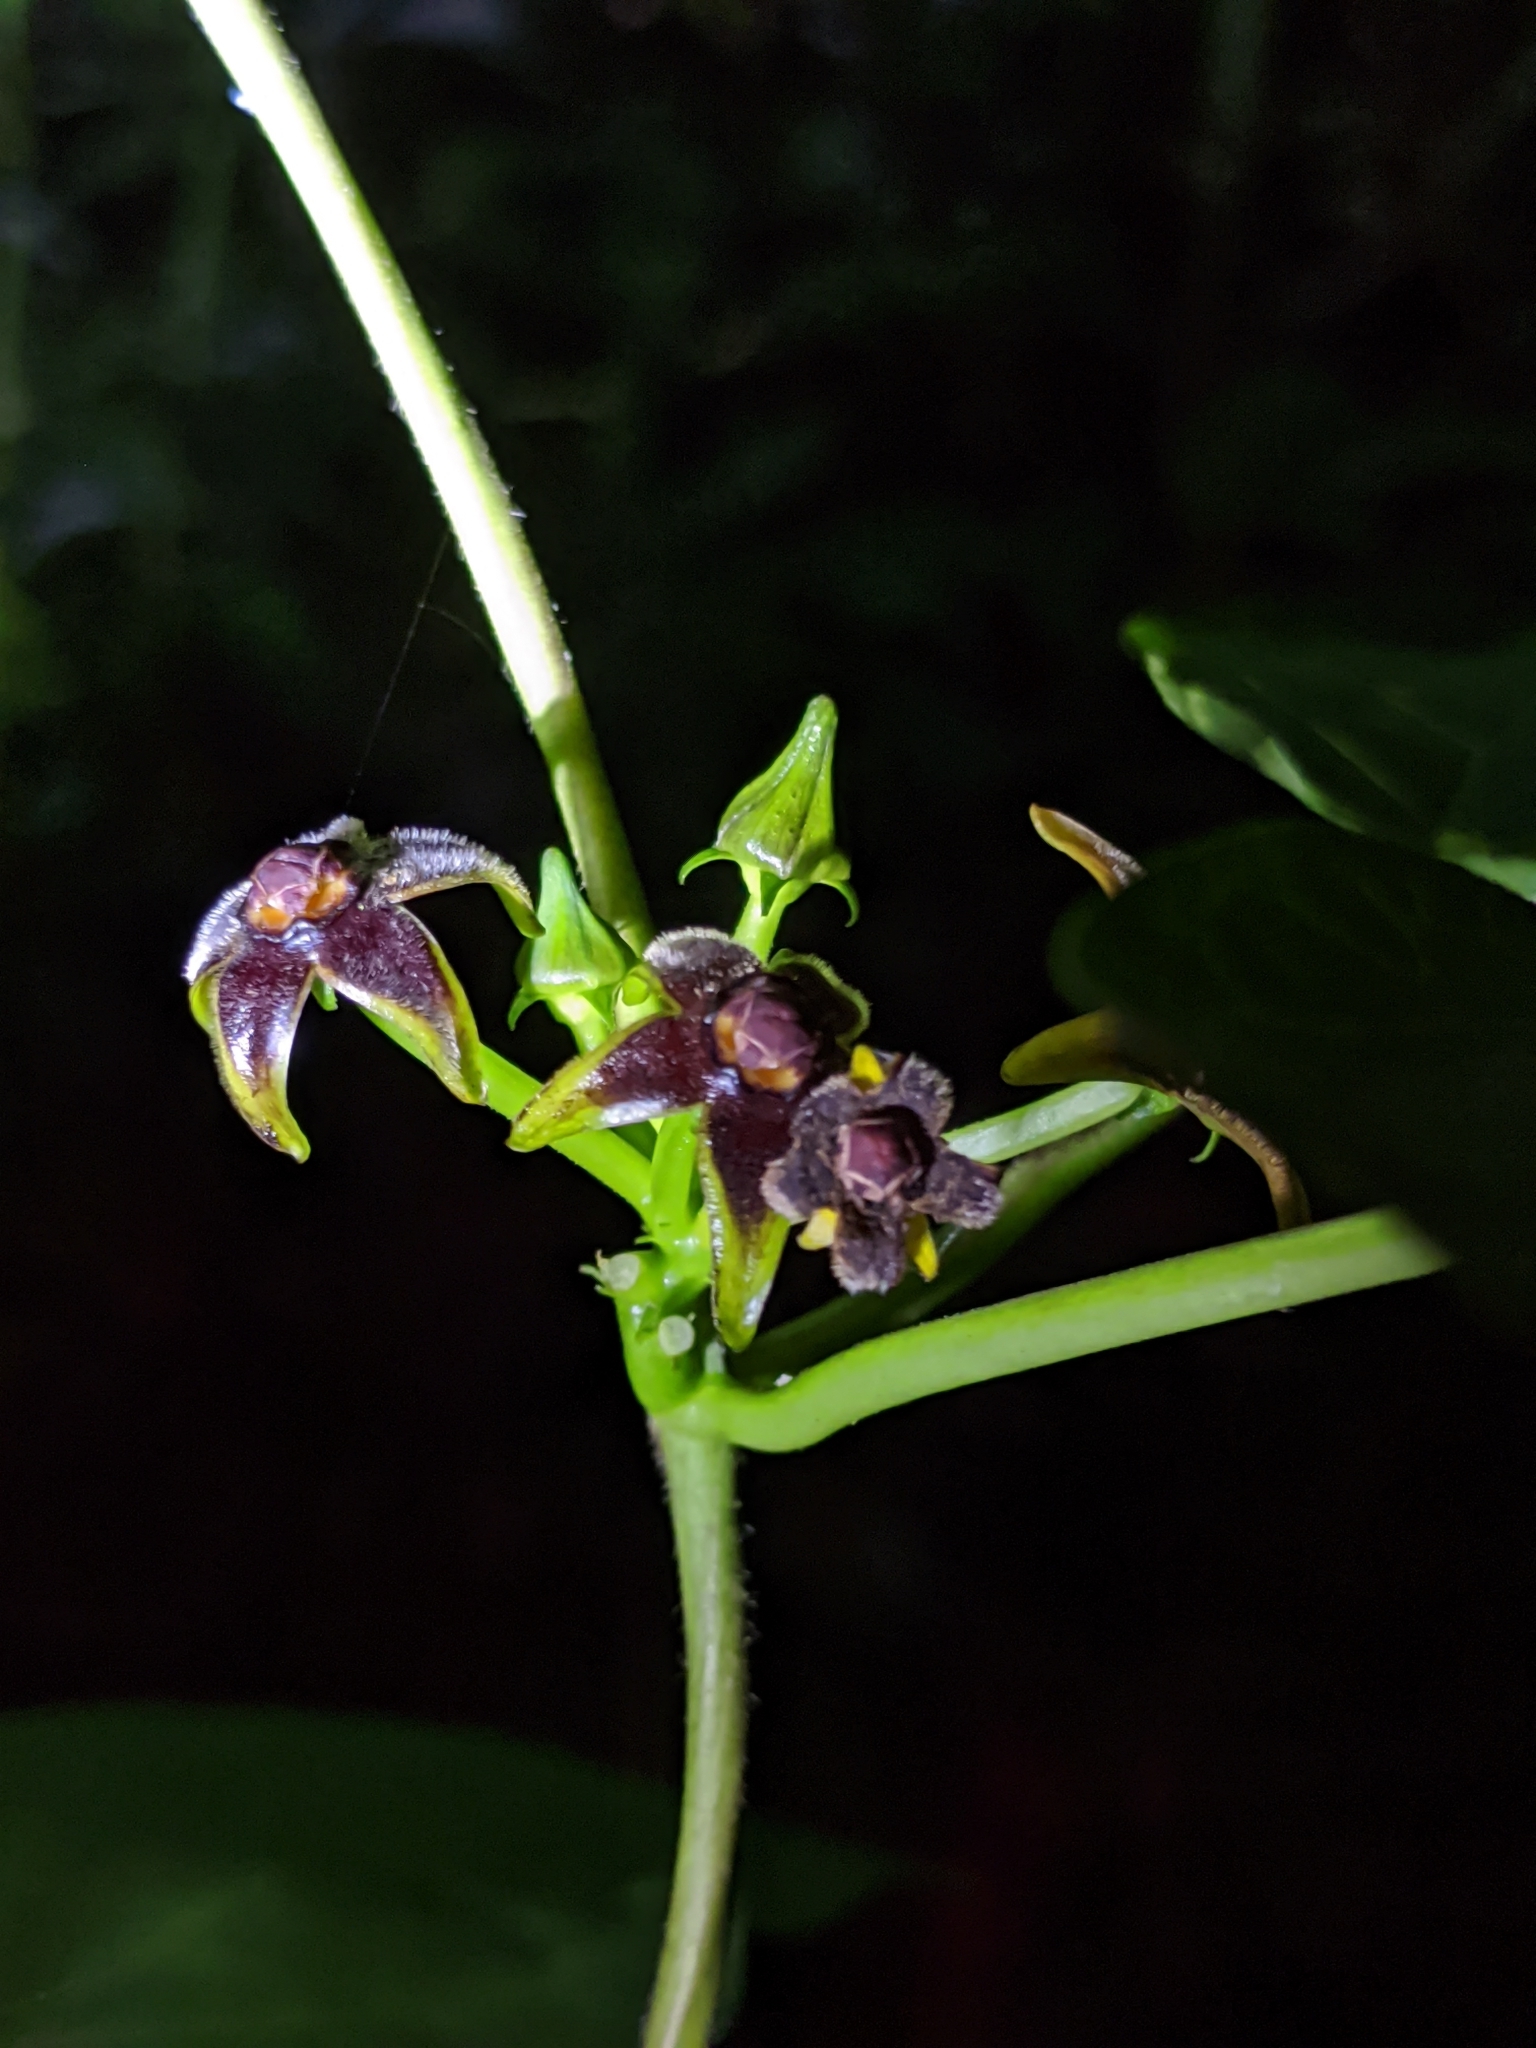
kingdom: Plantae
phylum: Tracheophyta
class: Magnoliopsida
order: Gentianales
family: Apocynaceae
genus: Gonolobus
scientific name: Gonolobus suberosus
